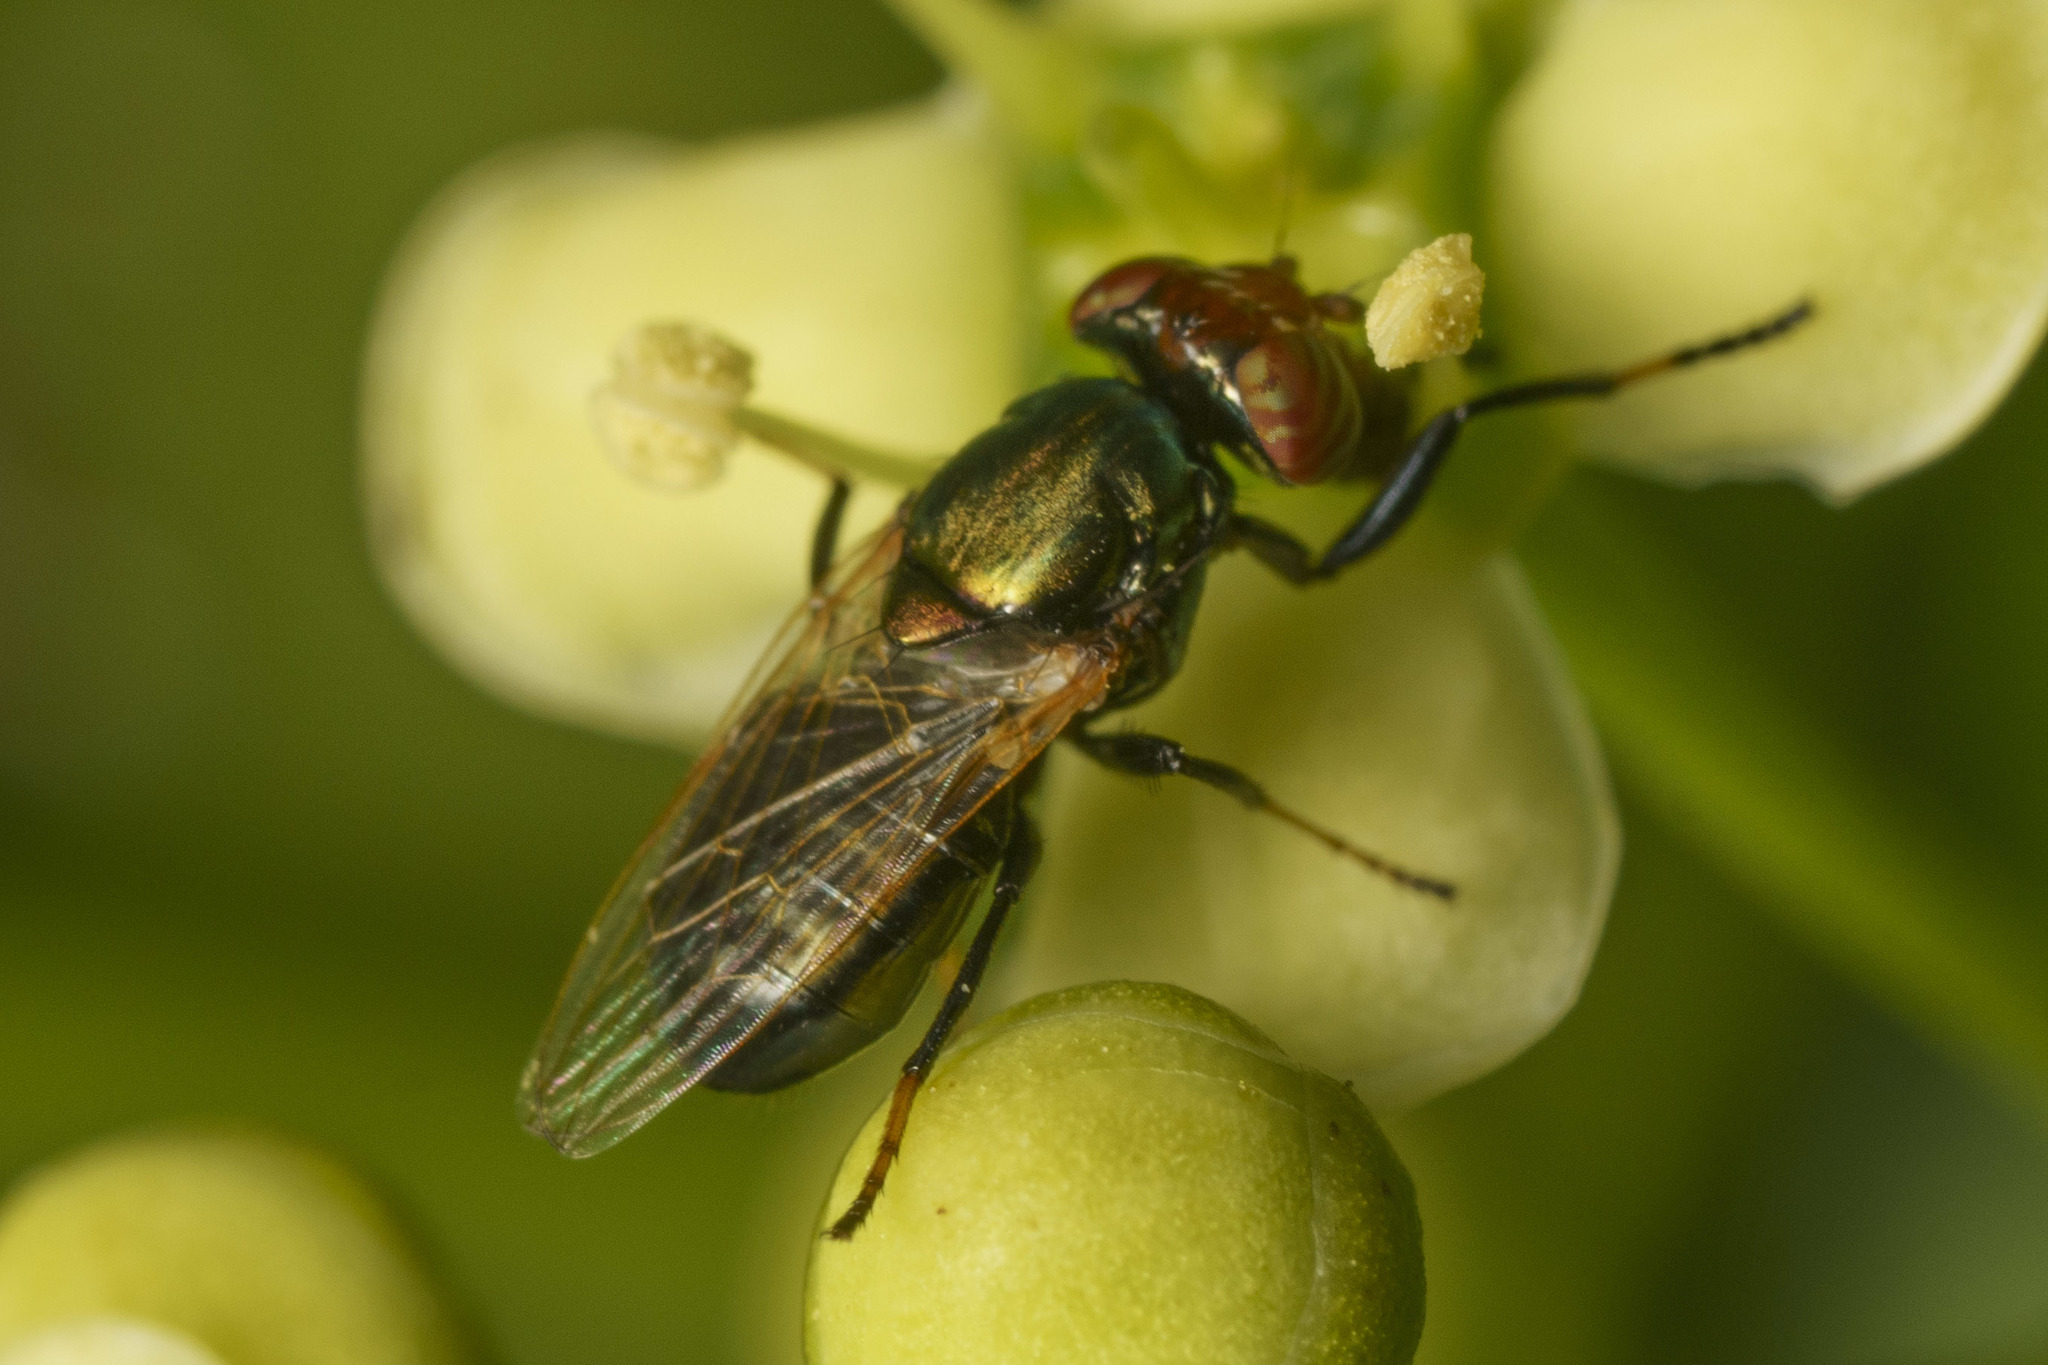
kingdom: Animalia
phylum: Arthropoda
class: Insecta
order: Diptera
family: Ulidiidae
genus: Physiphora
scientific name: Physiphora alceae
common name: Picture-winged fly
